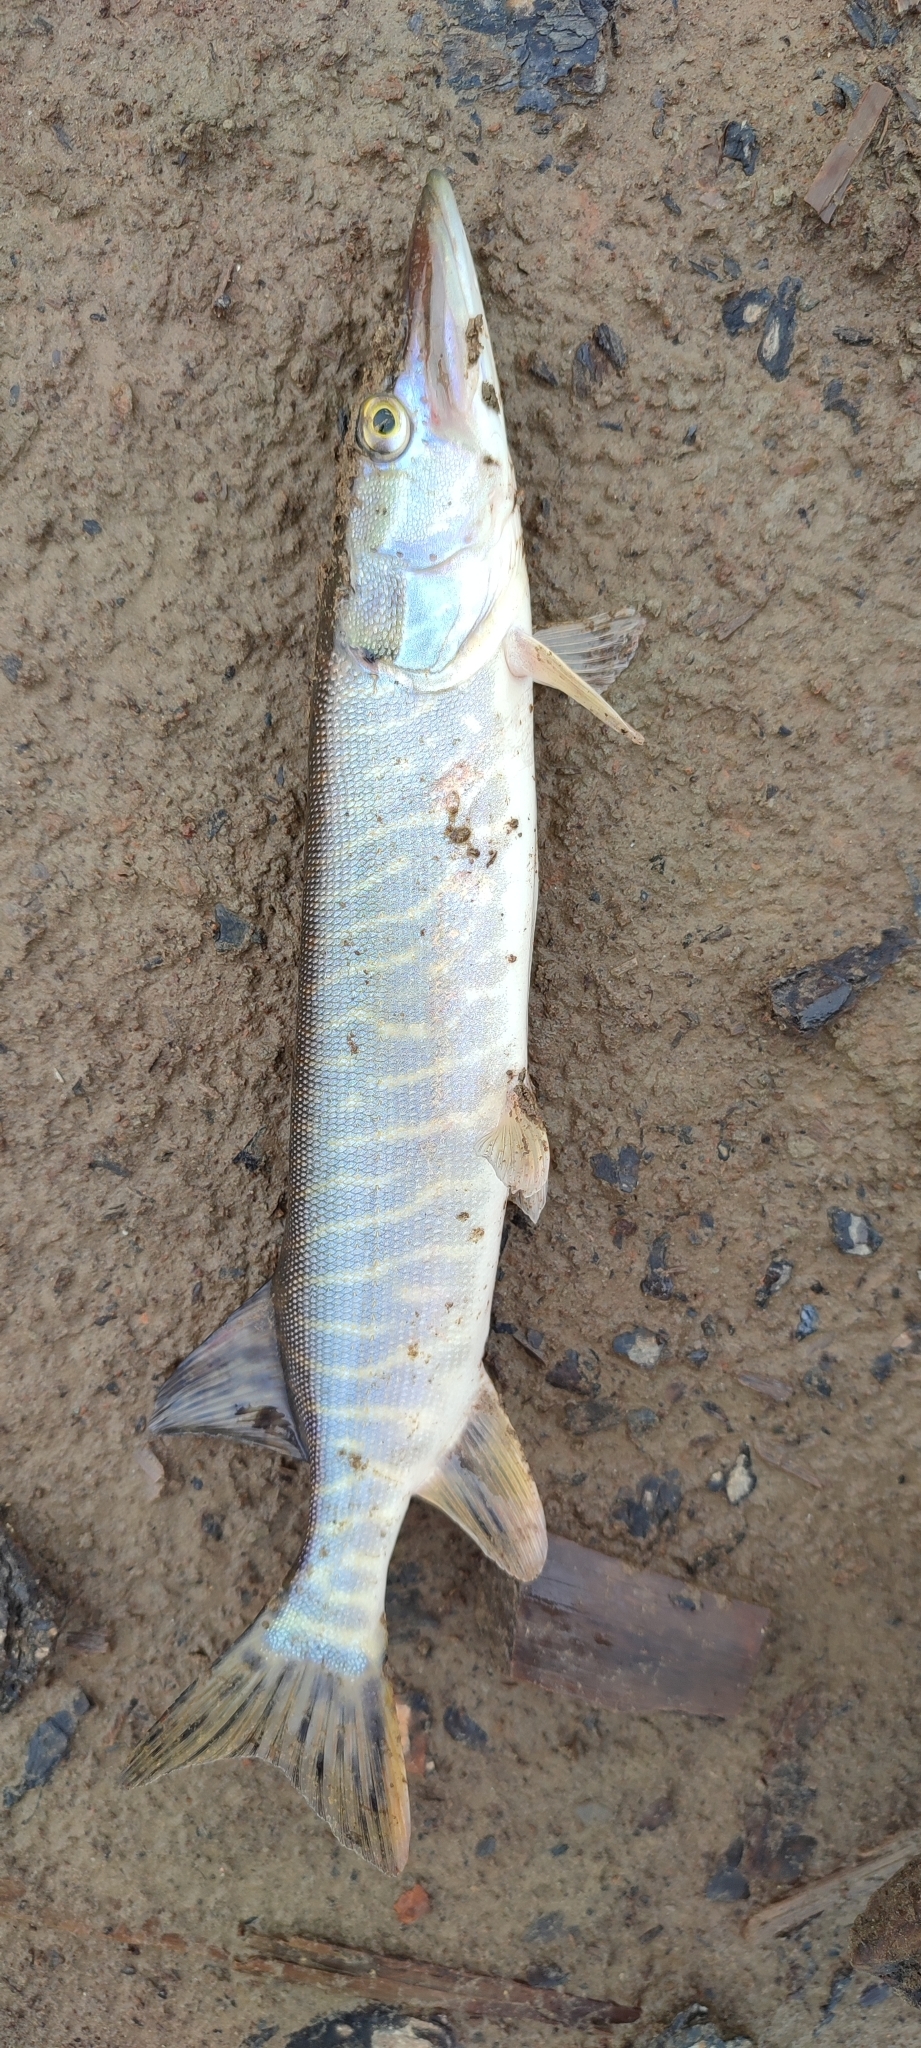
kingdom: Animalia
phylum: Chordata
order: Esociformes
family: Esocidae
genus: Esox
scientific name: Esox lucius
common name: Northern pike
